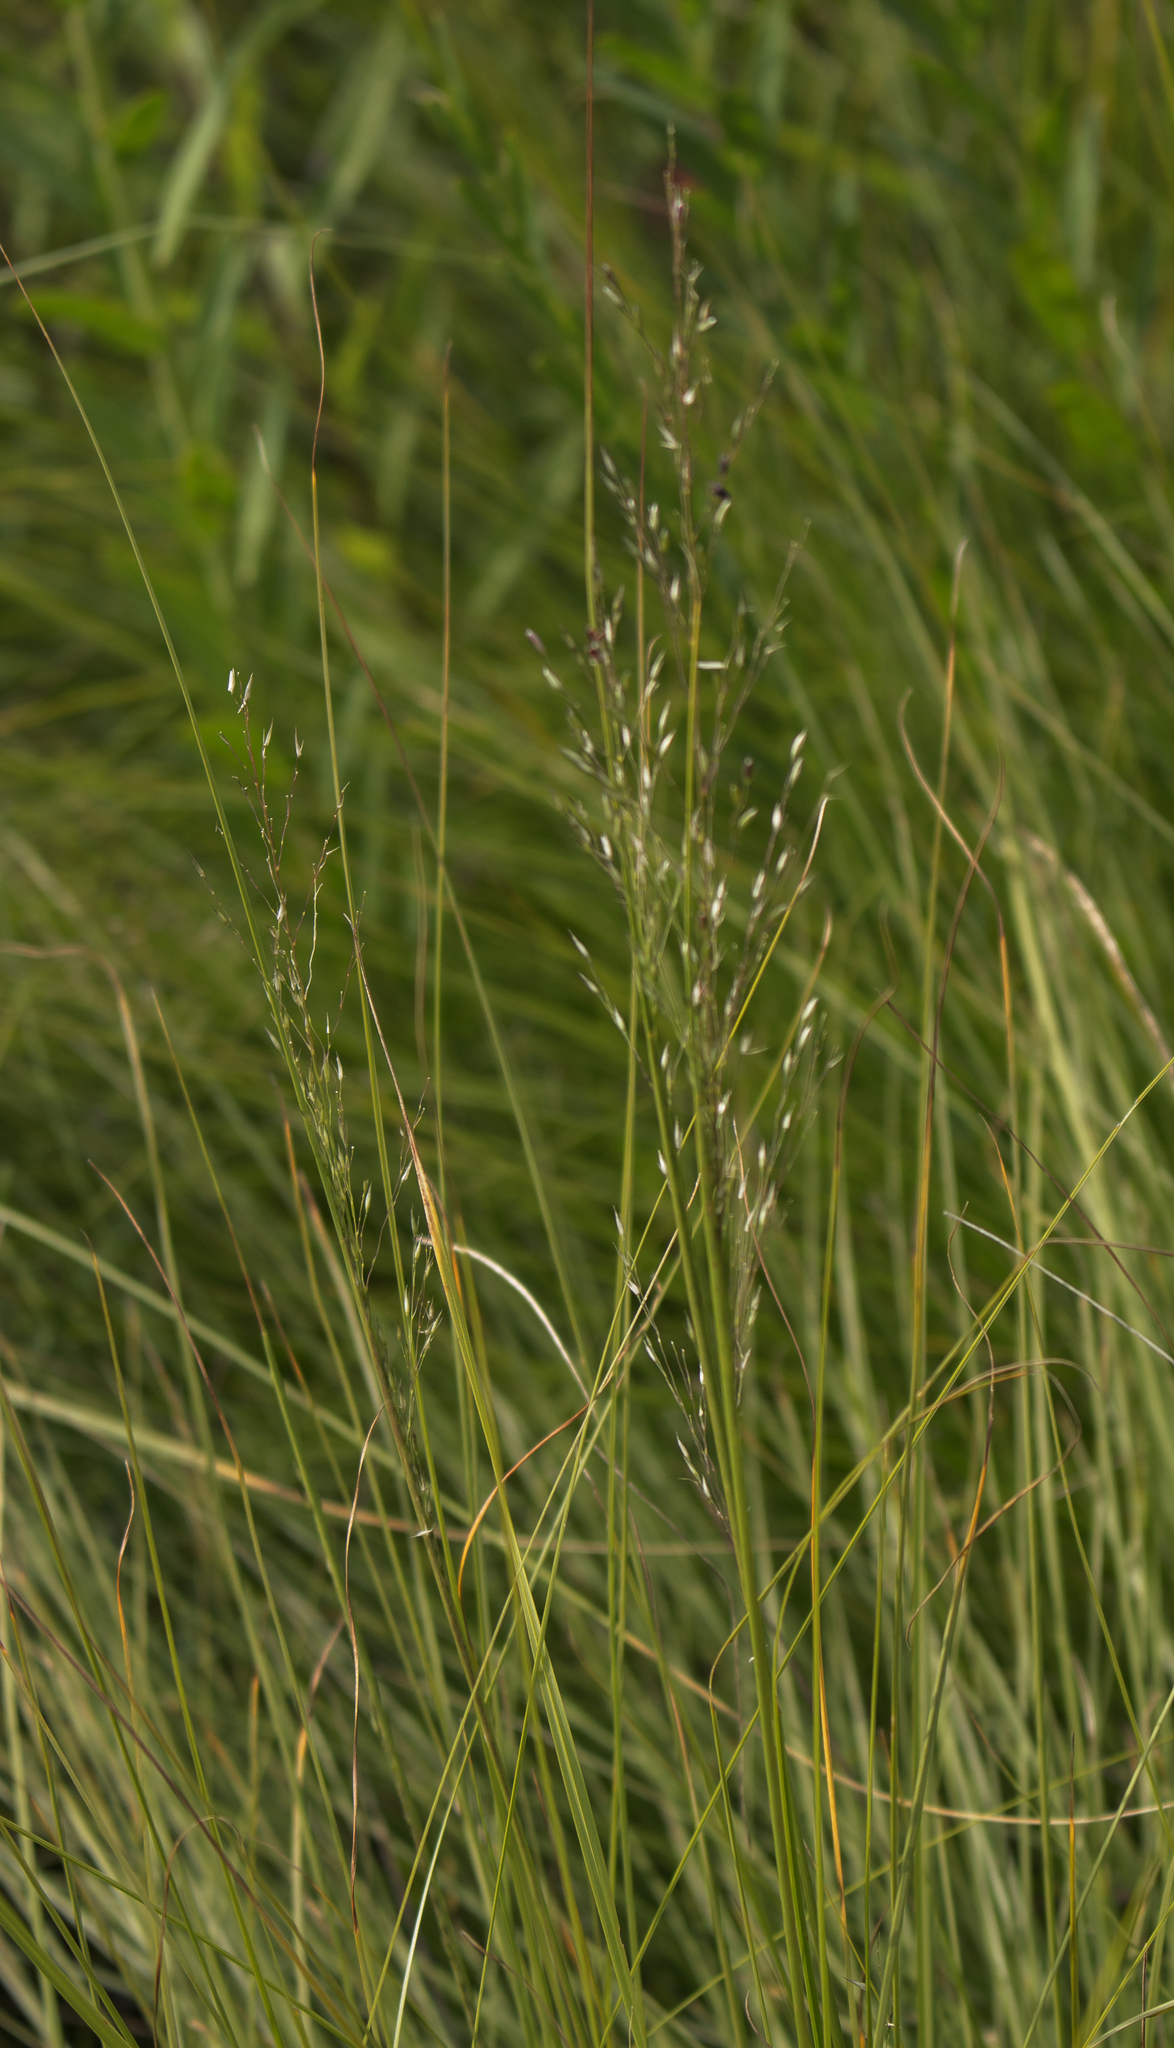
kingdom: Plantae
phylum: Tracheophyta
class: Liliopsida
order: Poales
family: Poaceae
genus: Sporobolus
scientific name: Sporobolus heterolepis
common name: Prairie dropseed
